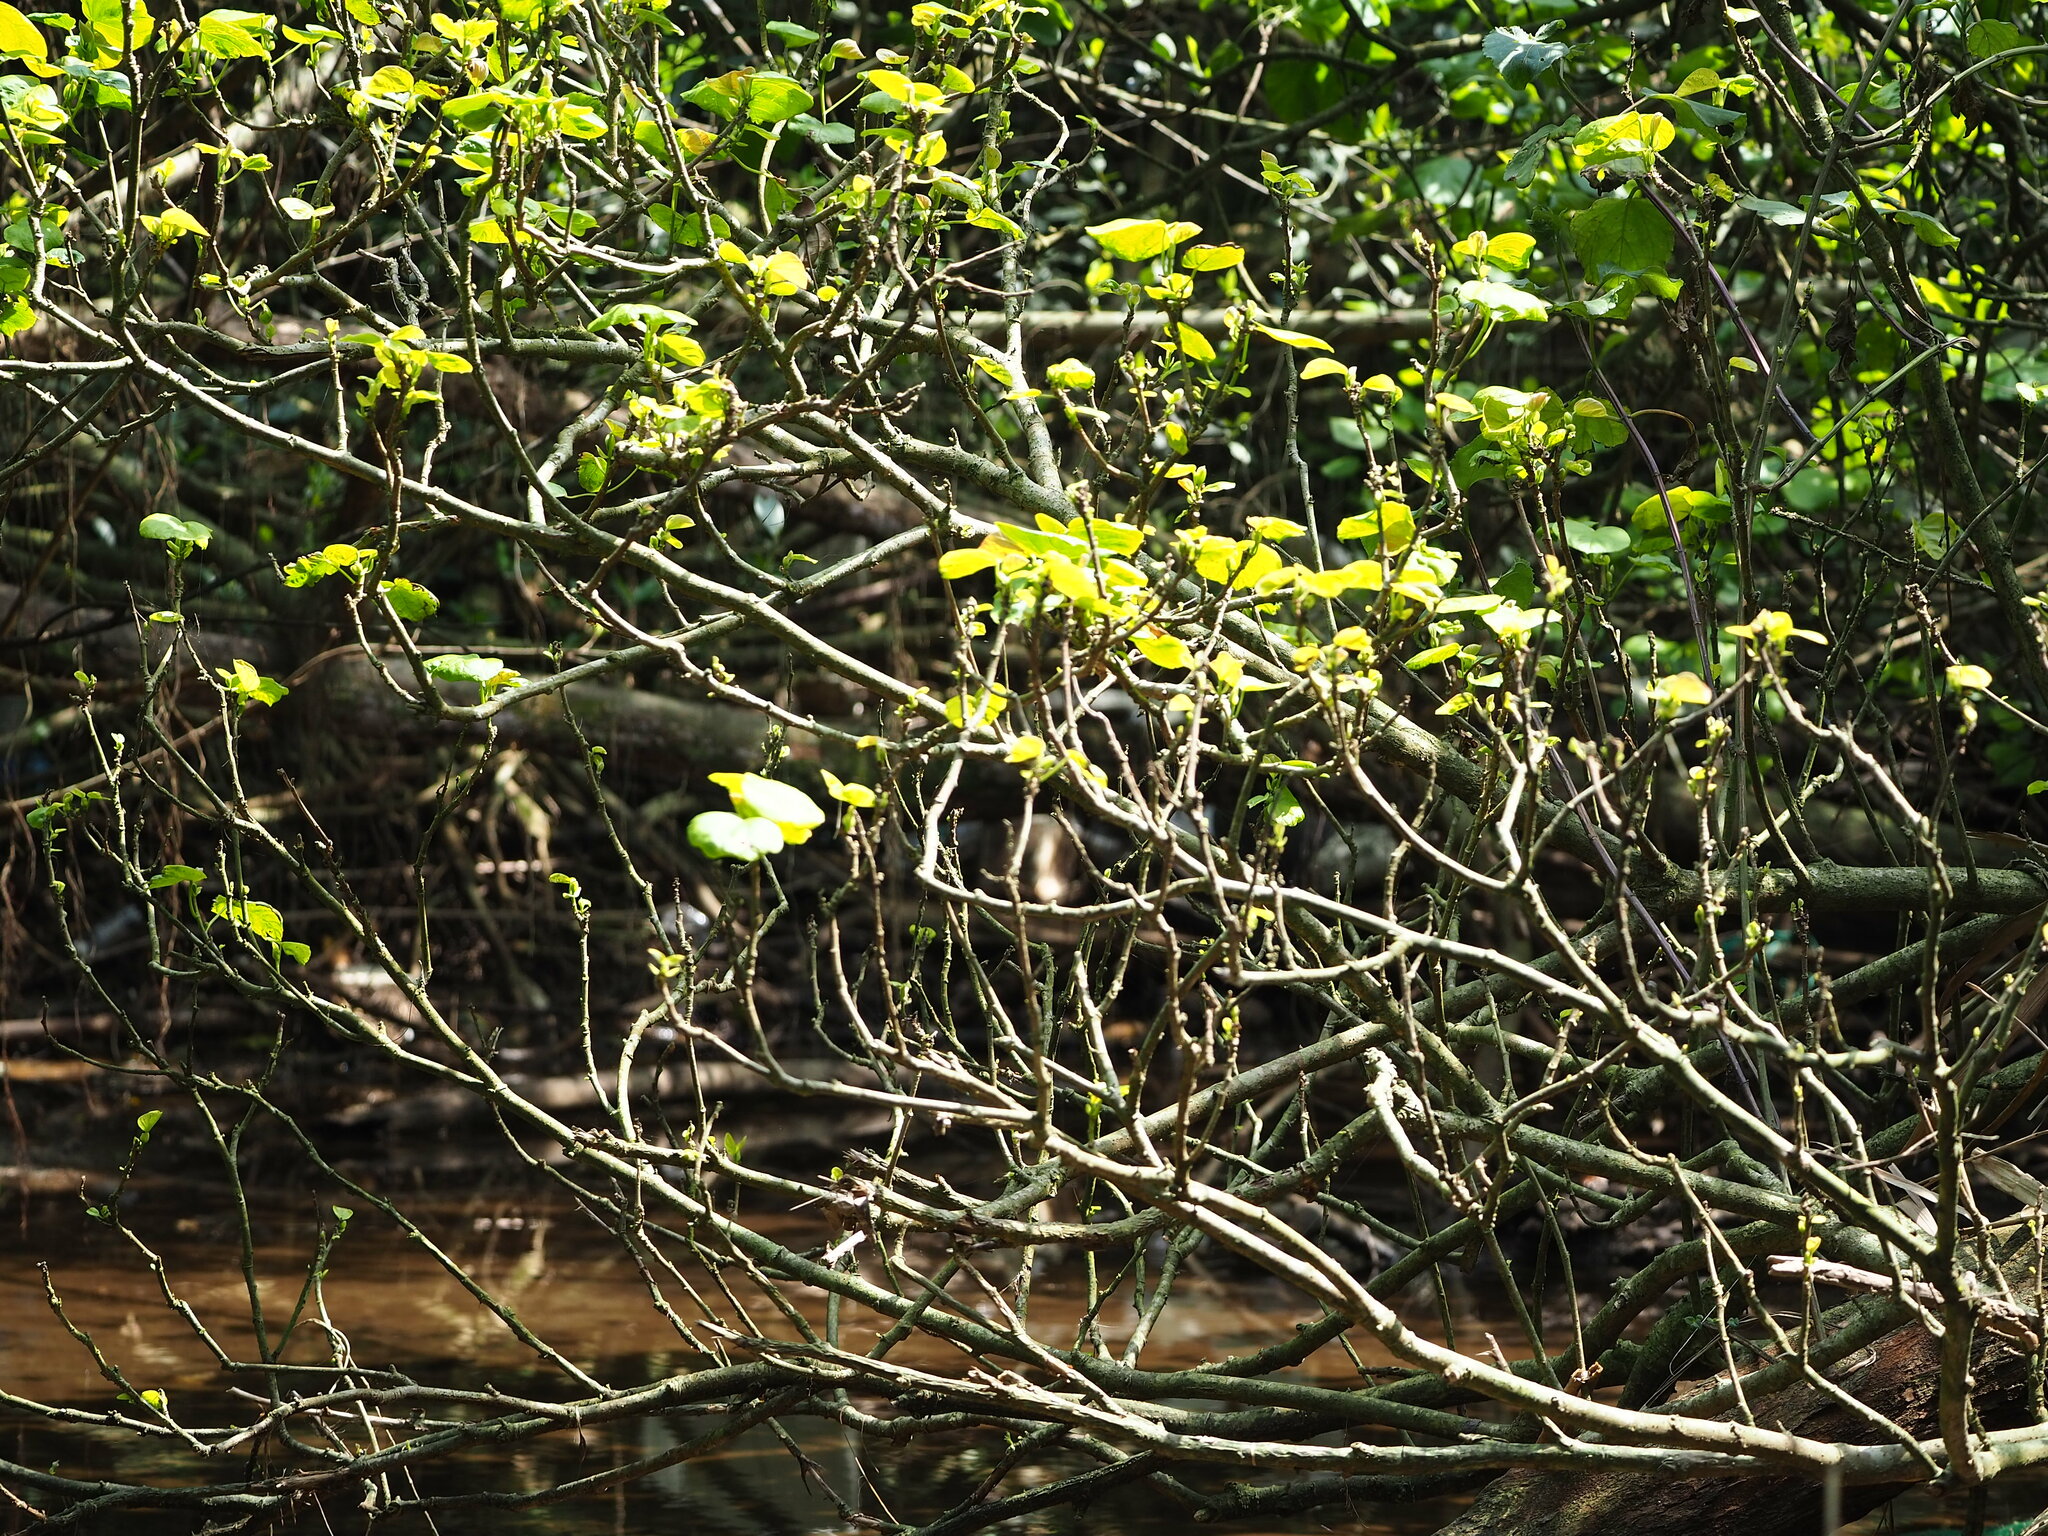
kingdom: Plantae
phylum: Tracheophyta
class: Magnoliopsida
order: Malvales
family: Malvaceae
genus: Talipariti
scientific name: Talipariti tiliaceum
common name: Sea hibiscus
